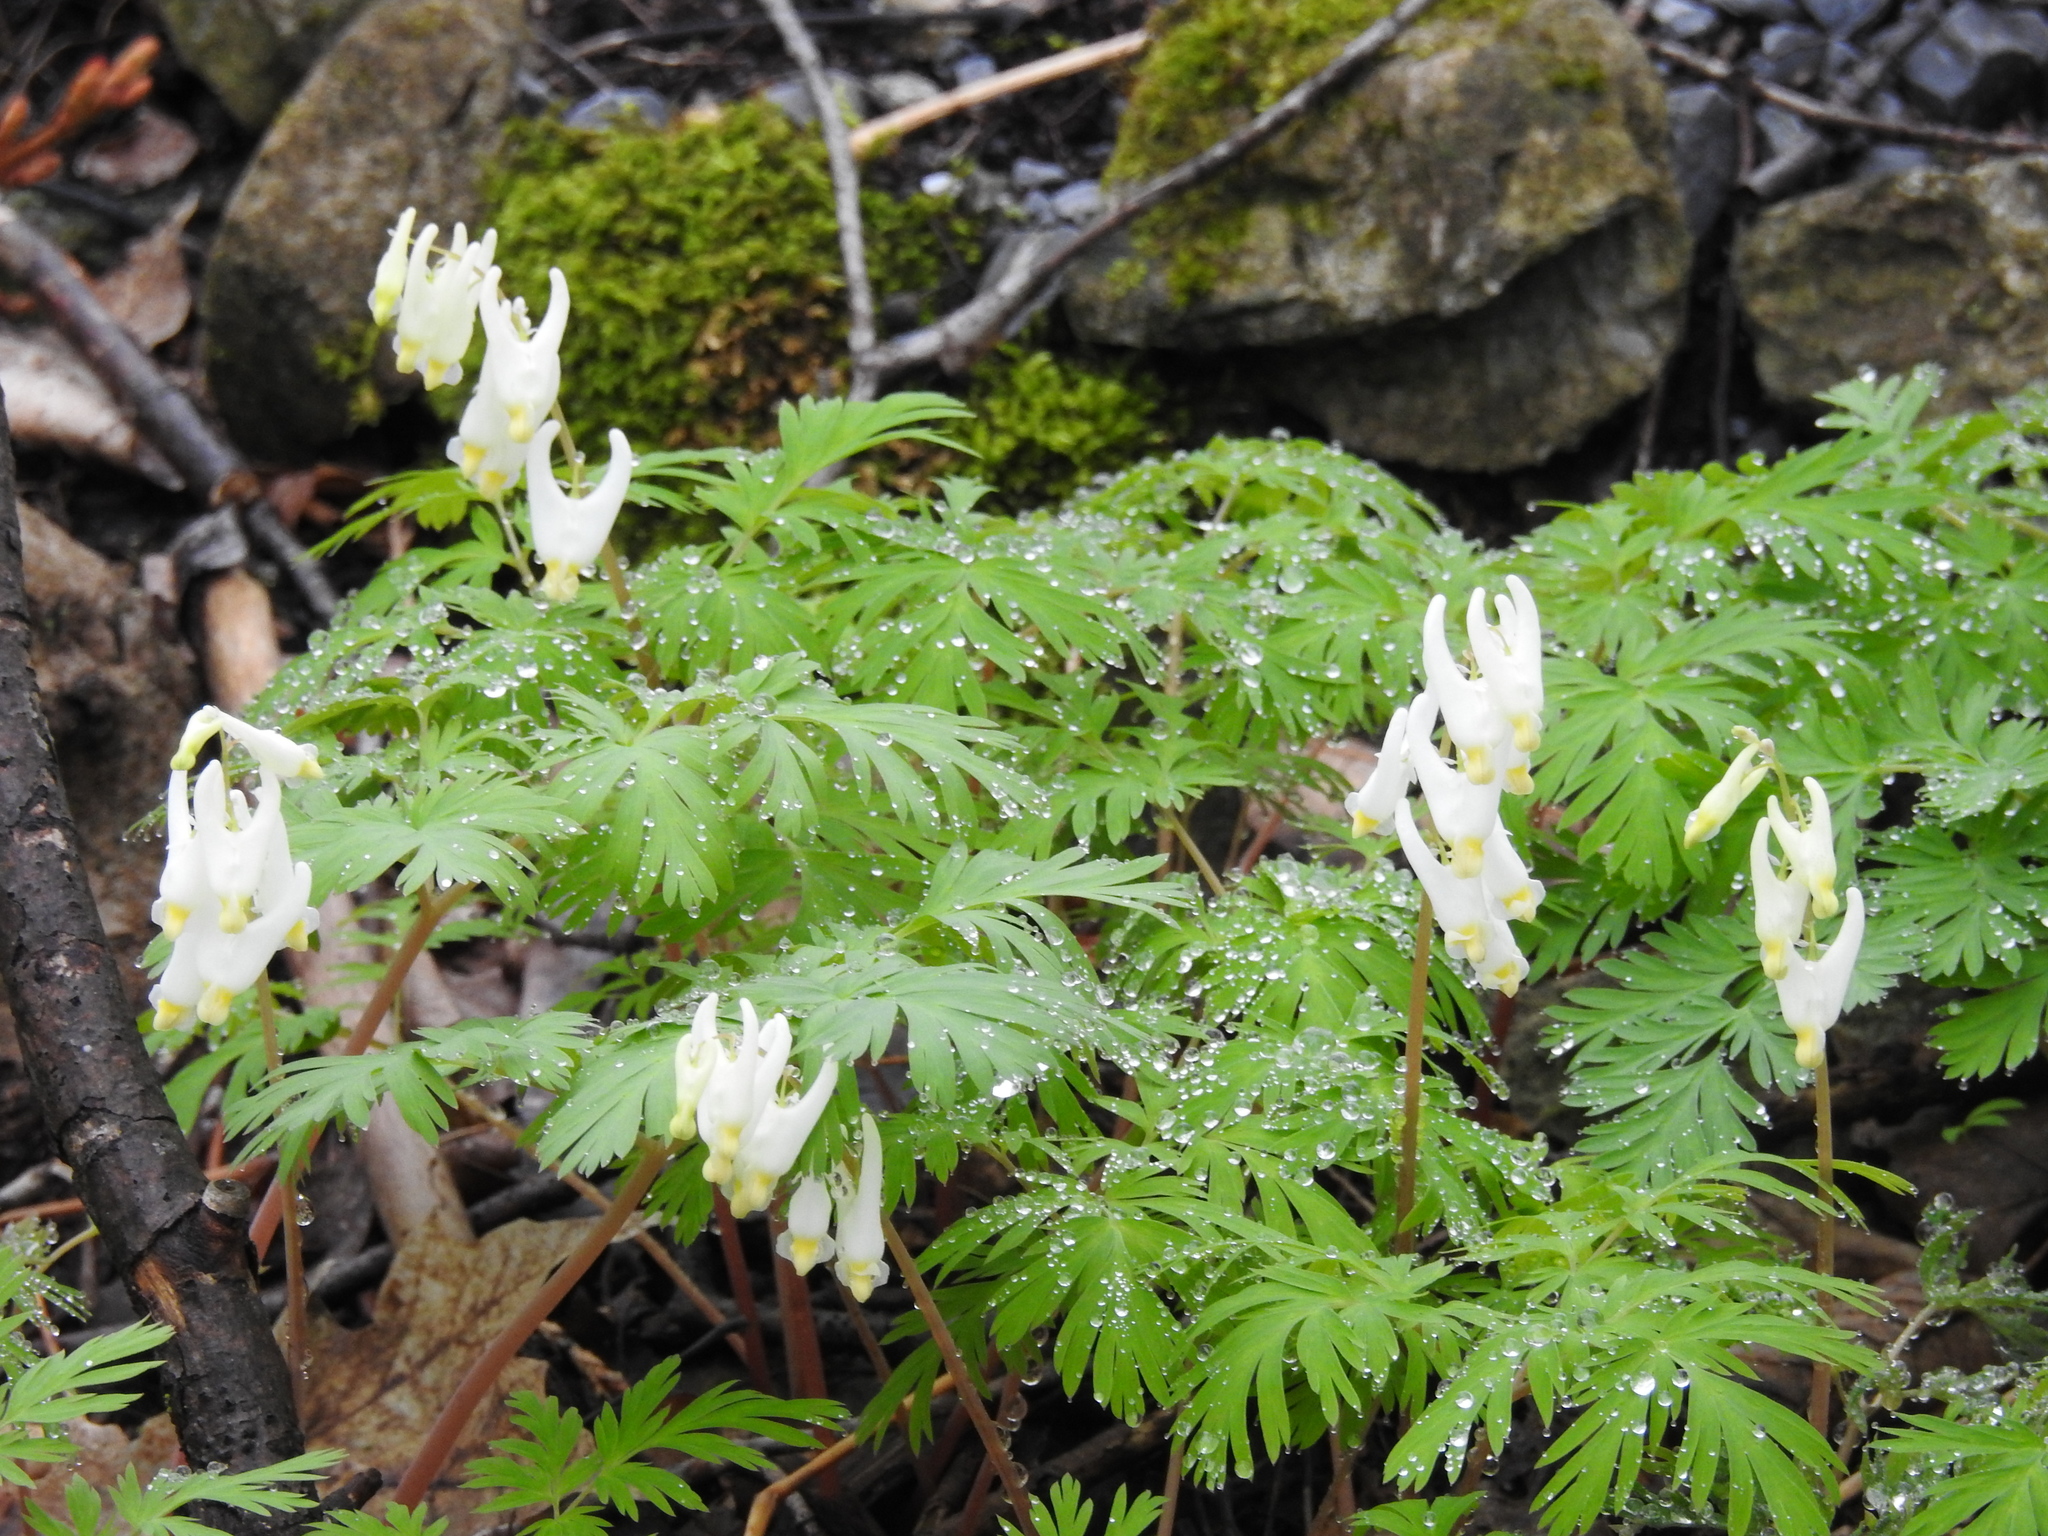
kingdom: Plantae
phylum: Tracheophyta
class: Magnoliopsida
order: Ranunculales
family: Papaveraceae
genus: Dicentra
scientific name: Dicentra cucullaria
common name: Dutchman's breeches
